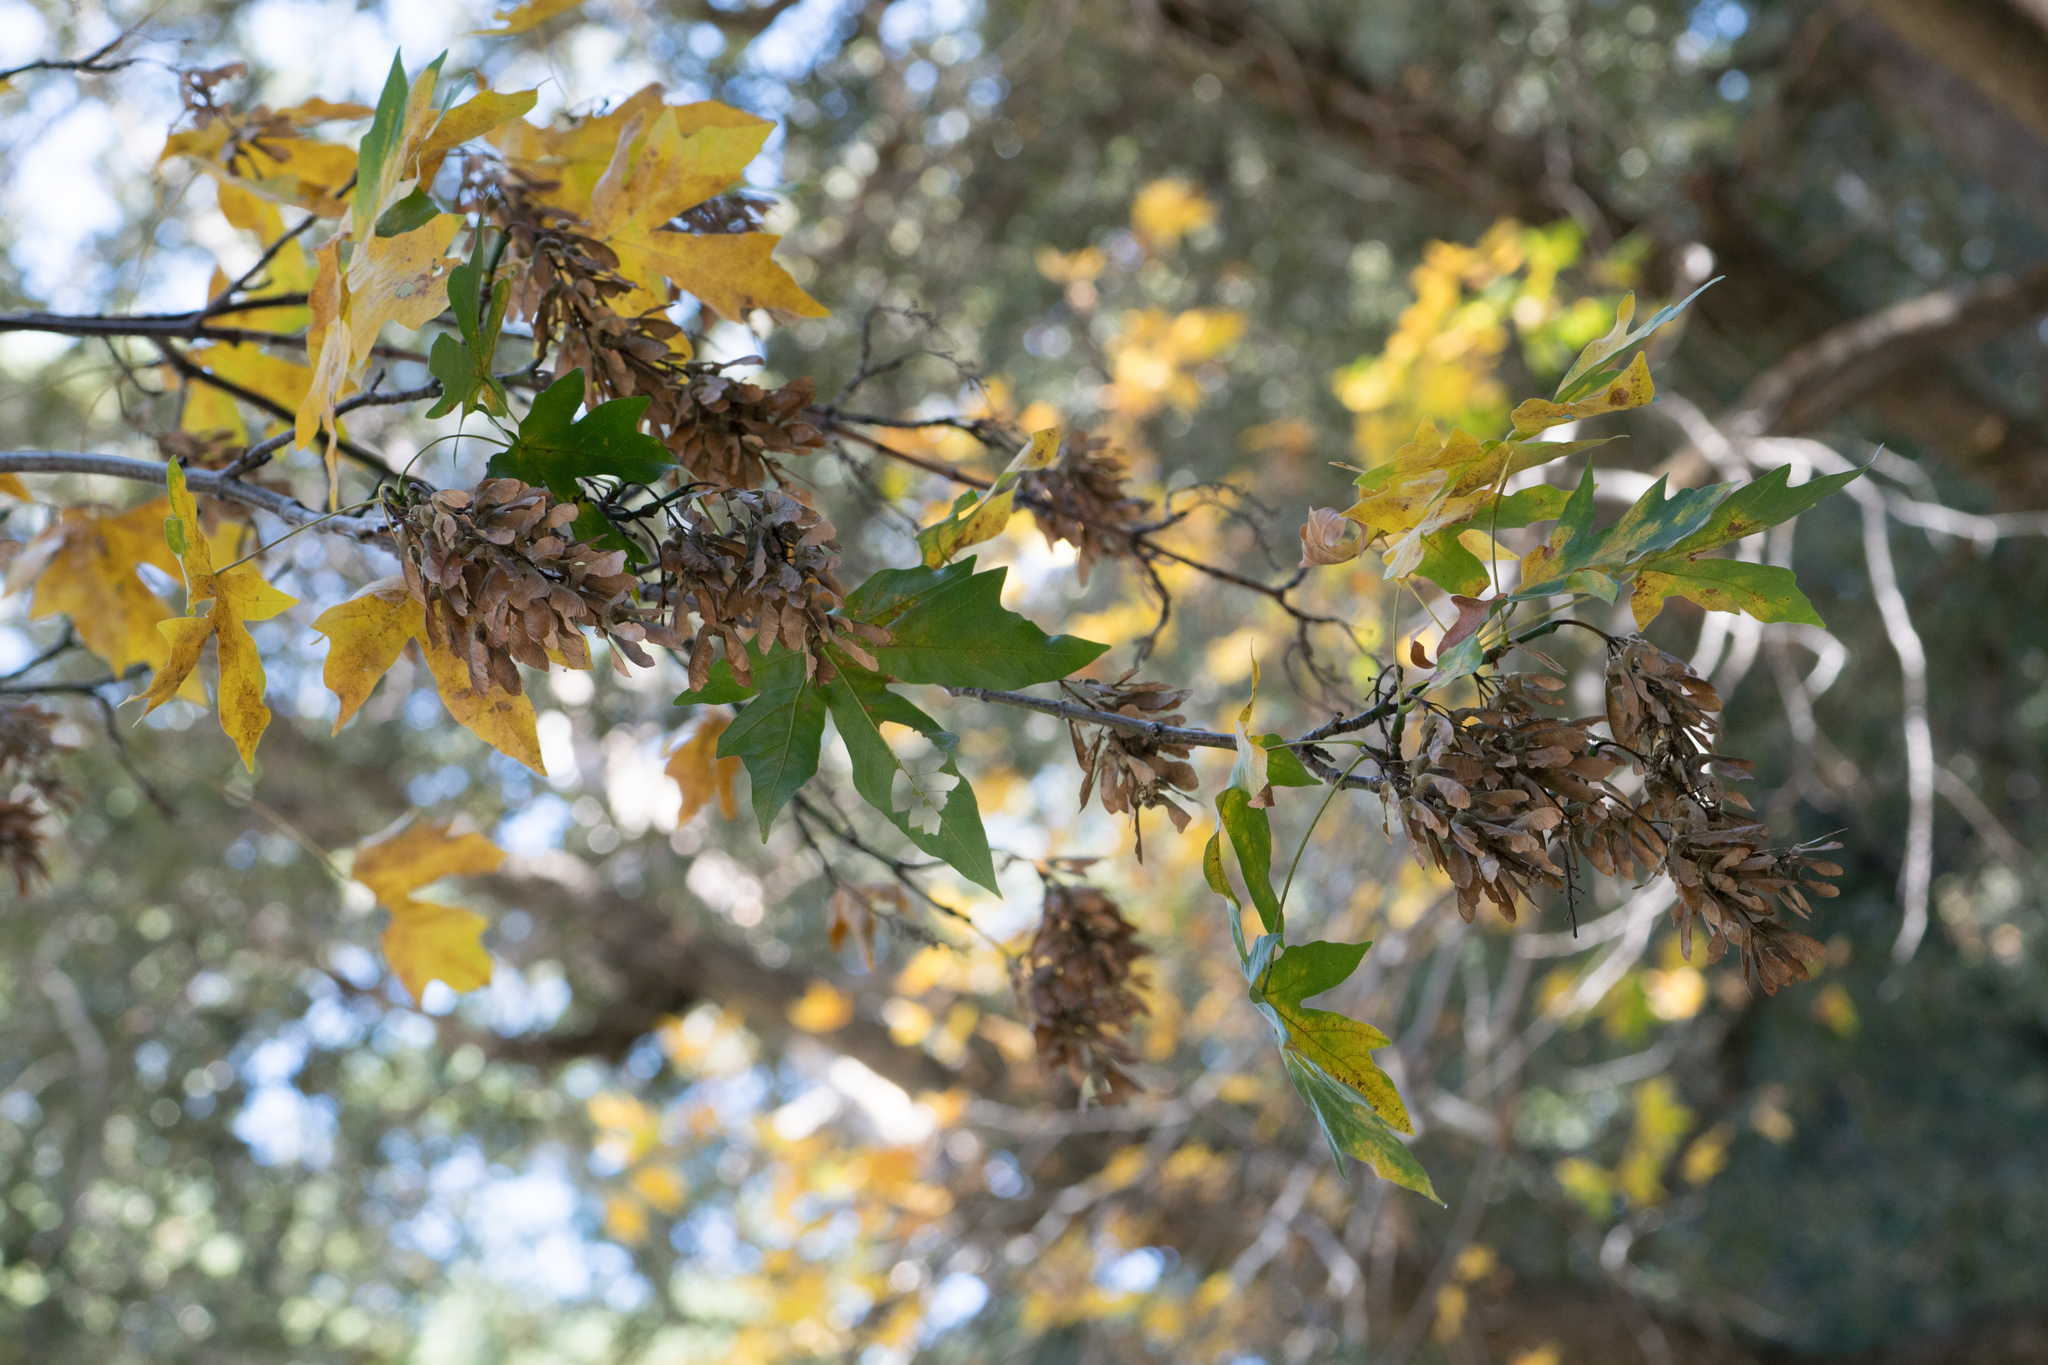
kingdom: Plantae
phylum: Tracheophyta
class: Magnoliopsida
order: Sapindales
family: Sapindaceae
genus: Acer
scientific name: Acer macrophyllum
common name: Oregon maple
